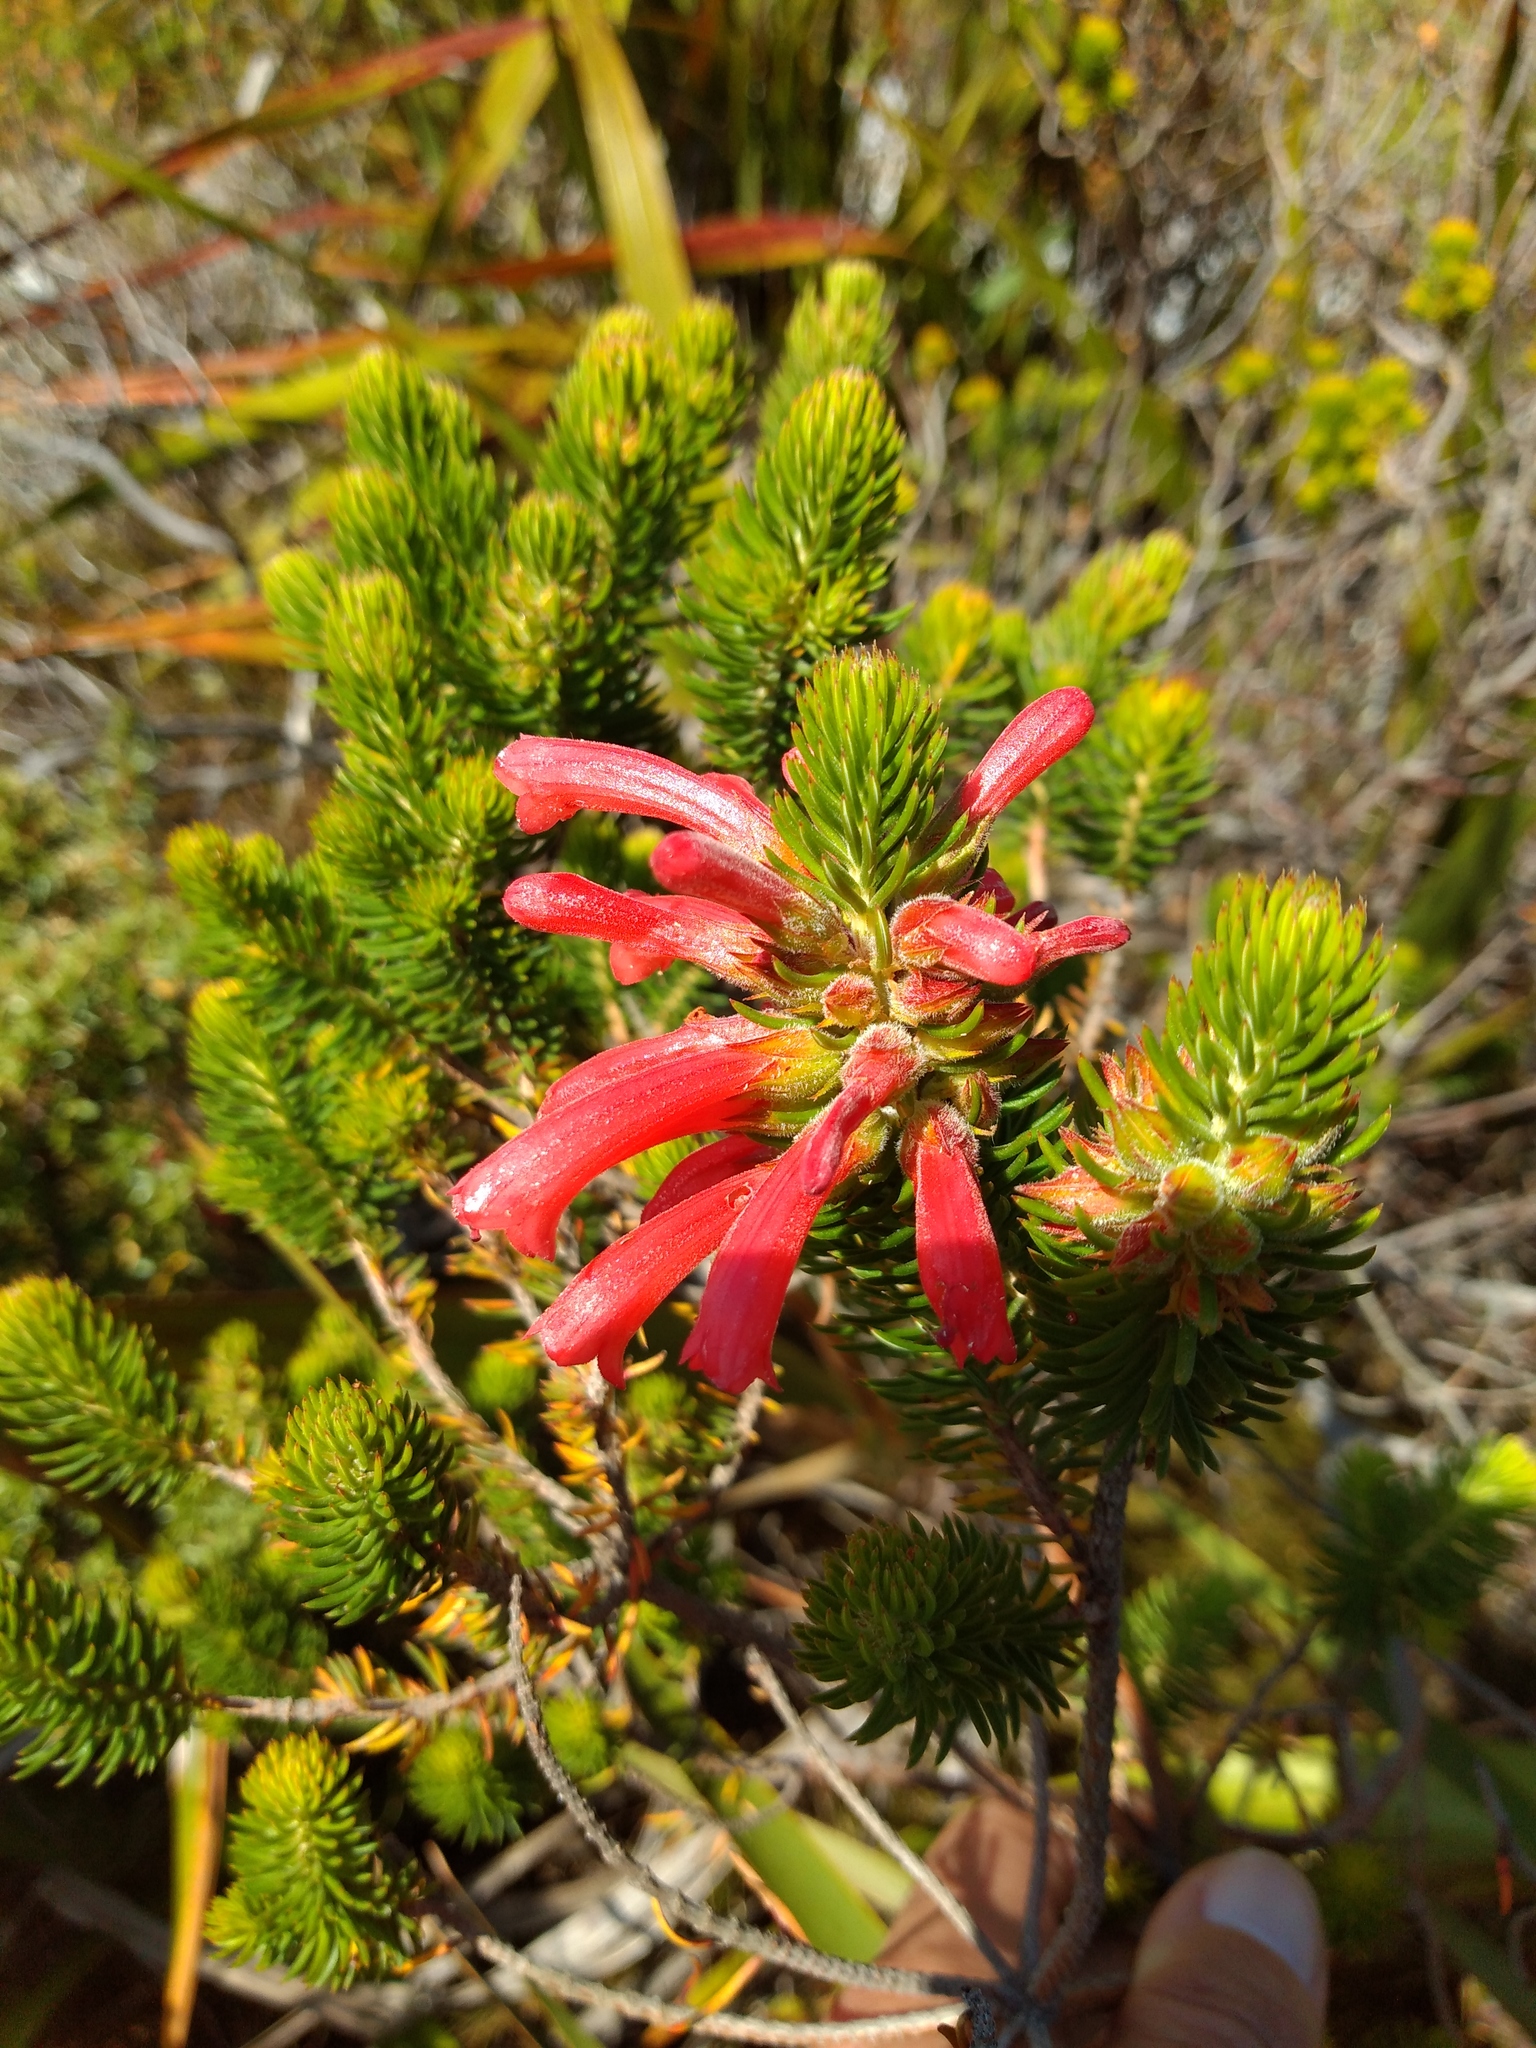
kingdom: Plantae
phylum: Tracheophyta
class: Magnoliopsida
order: Ericales
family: Ericaceae
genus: Erica
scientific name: Erica abietina
